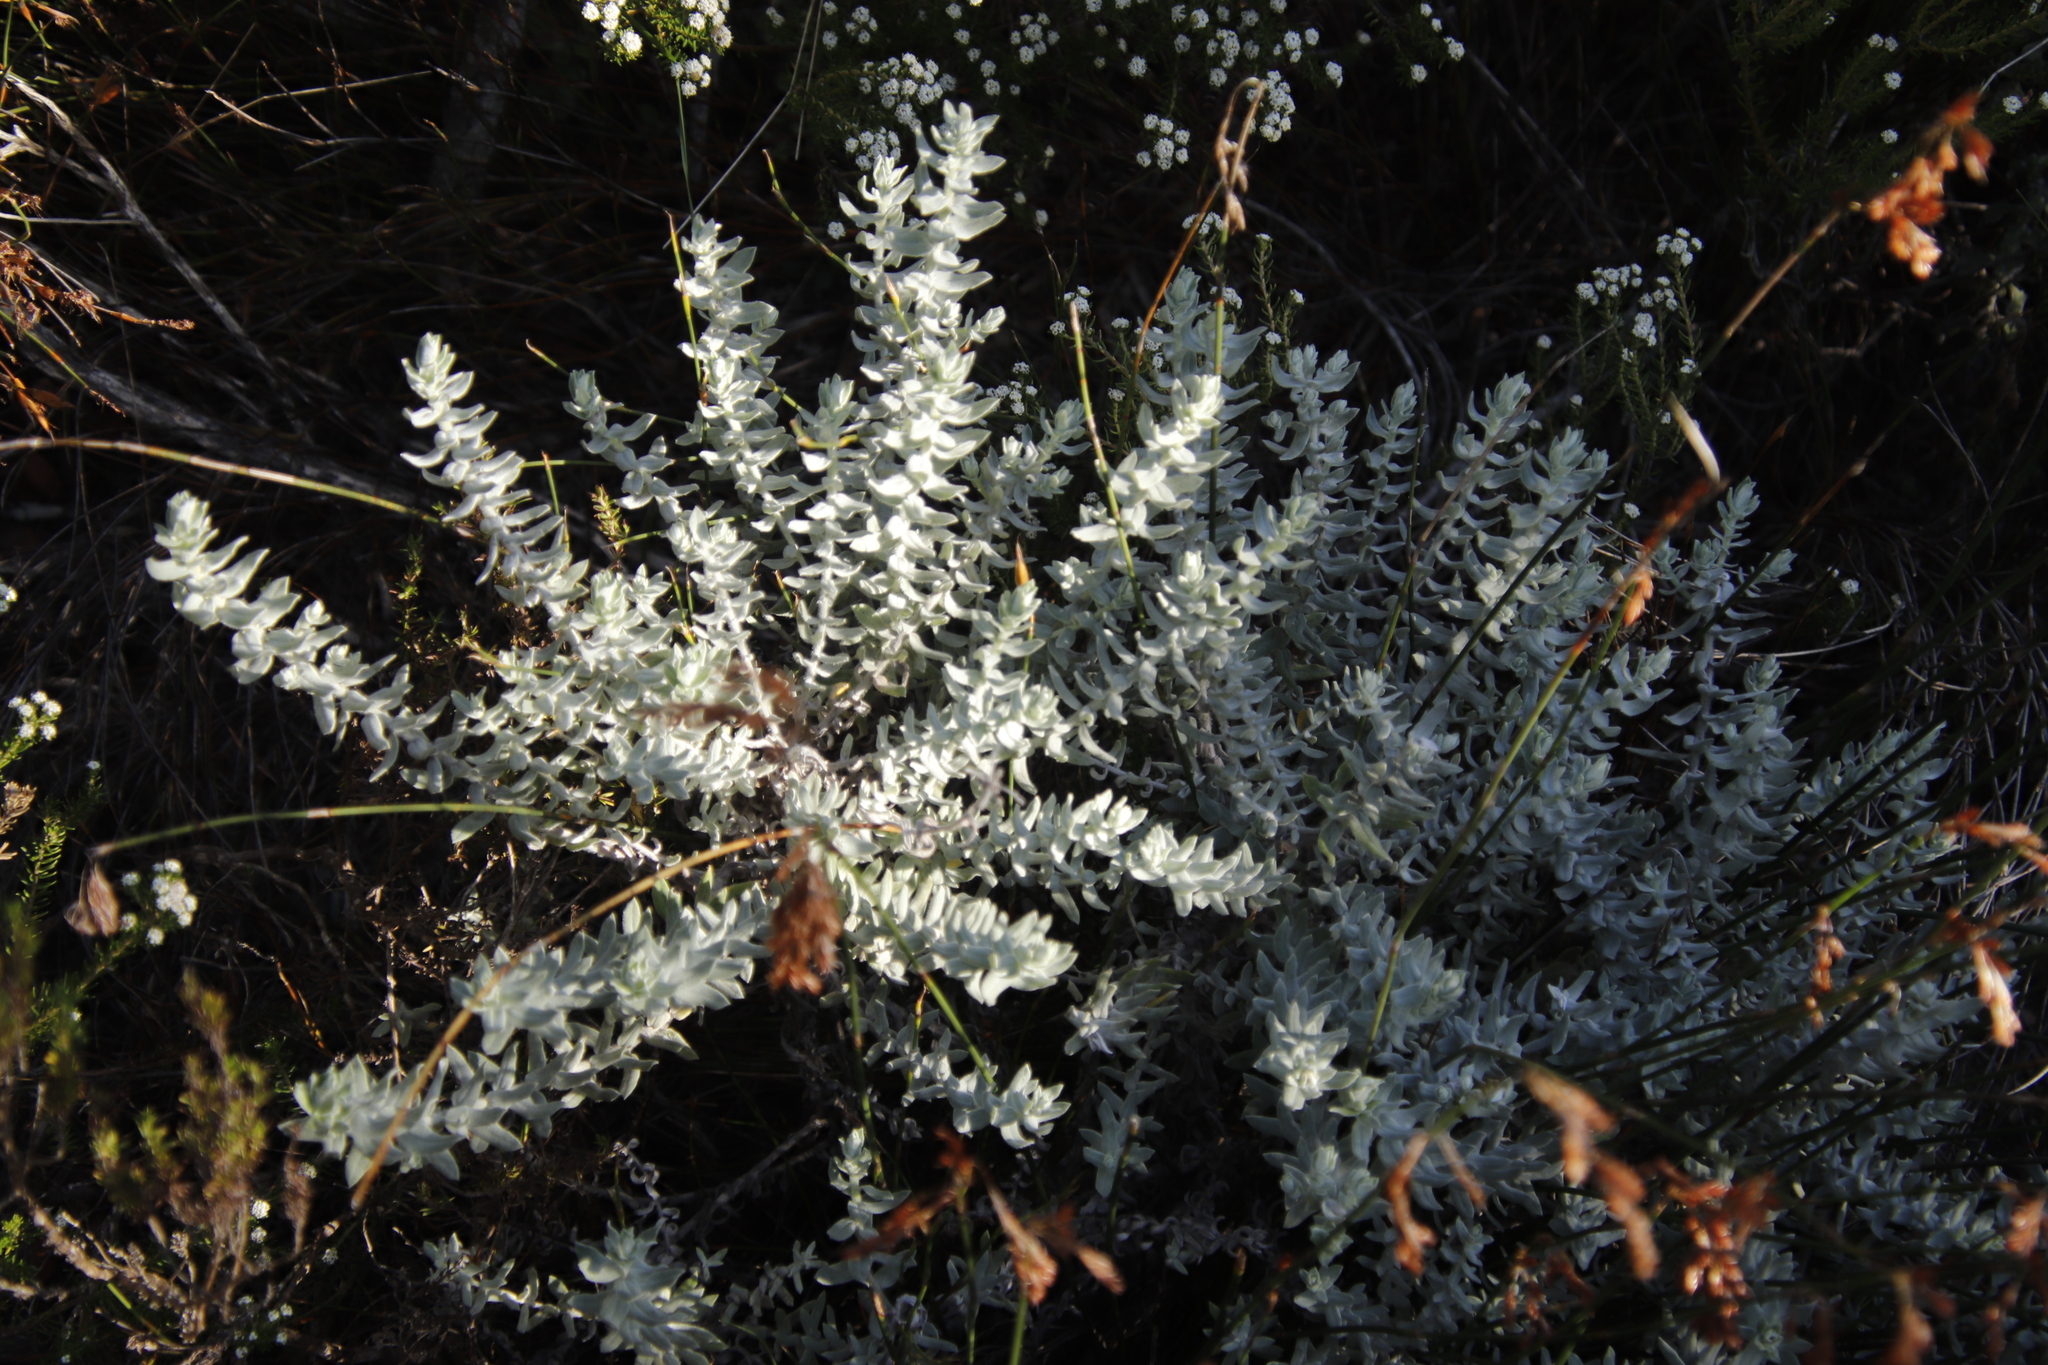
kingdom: Plantae
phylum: Tracheophyta
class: Magnoliopsida
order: Asterales
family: Asteraceae
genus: Helichrysum
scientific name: Helichrysum dasyanthum
